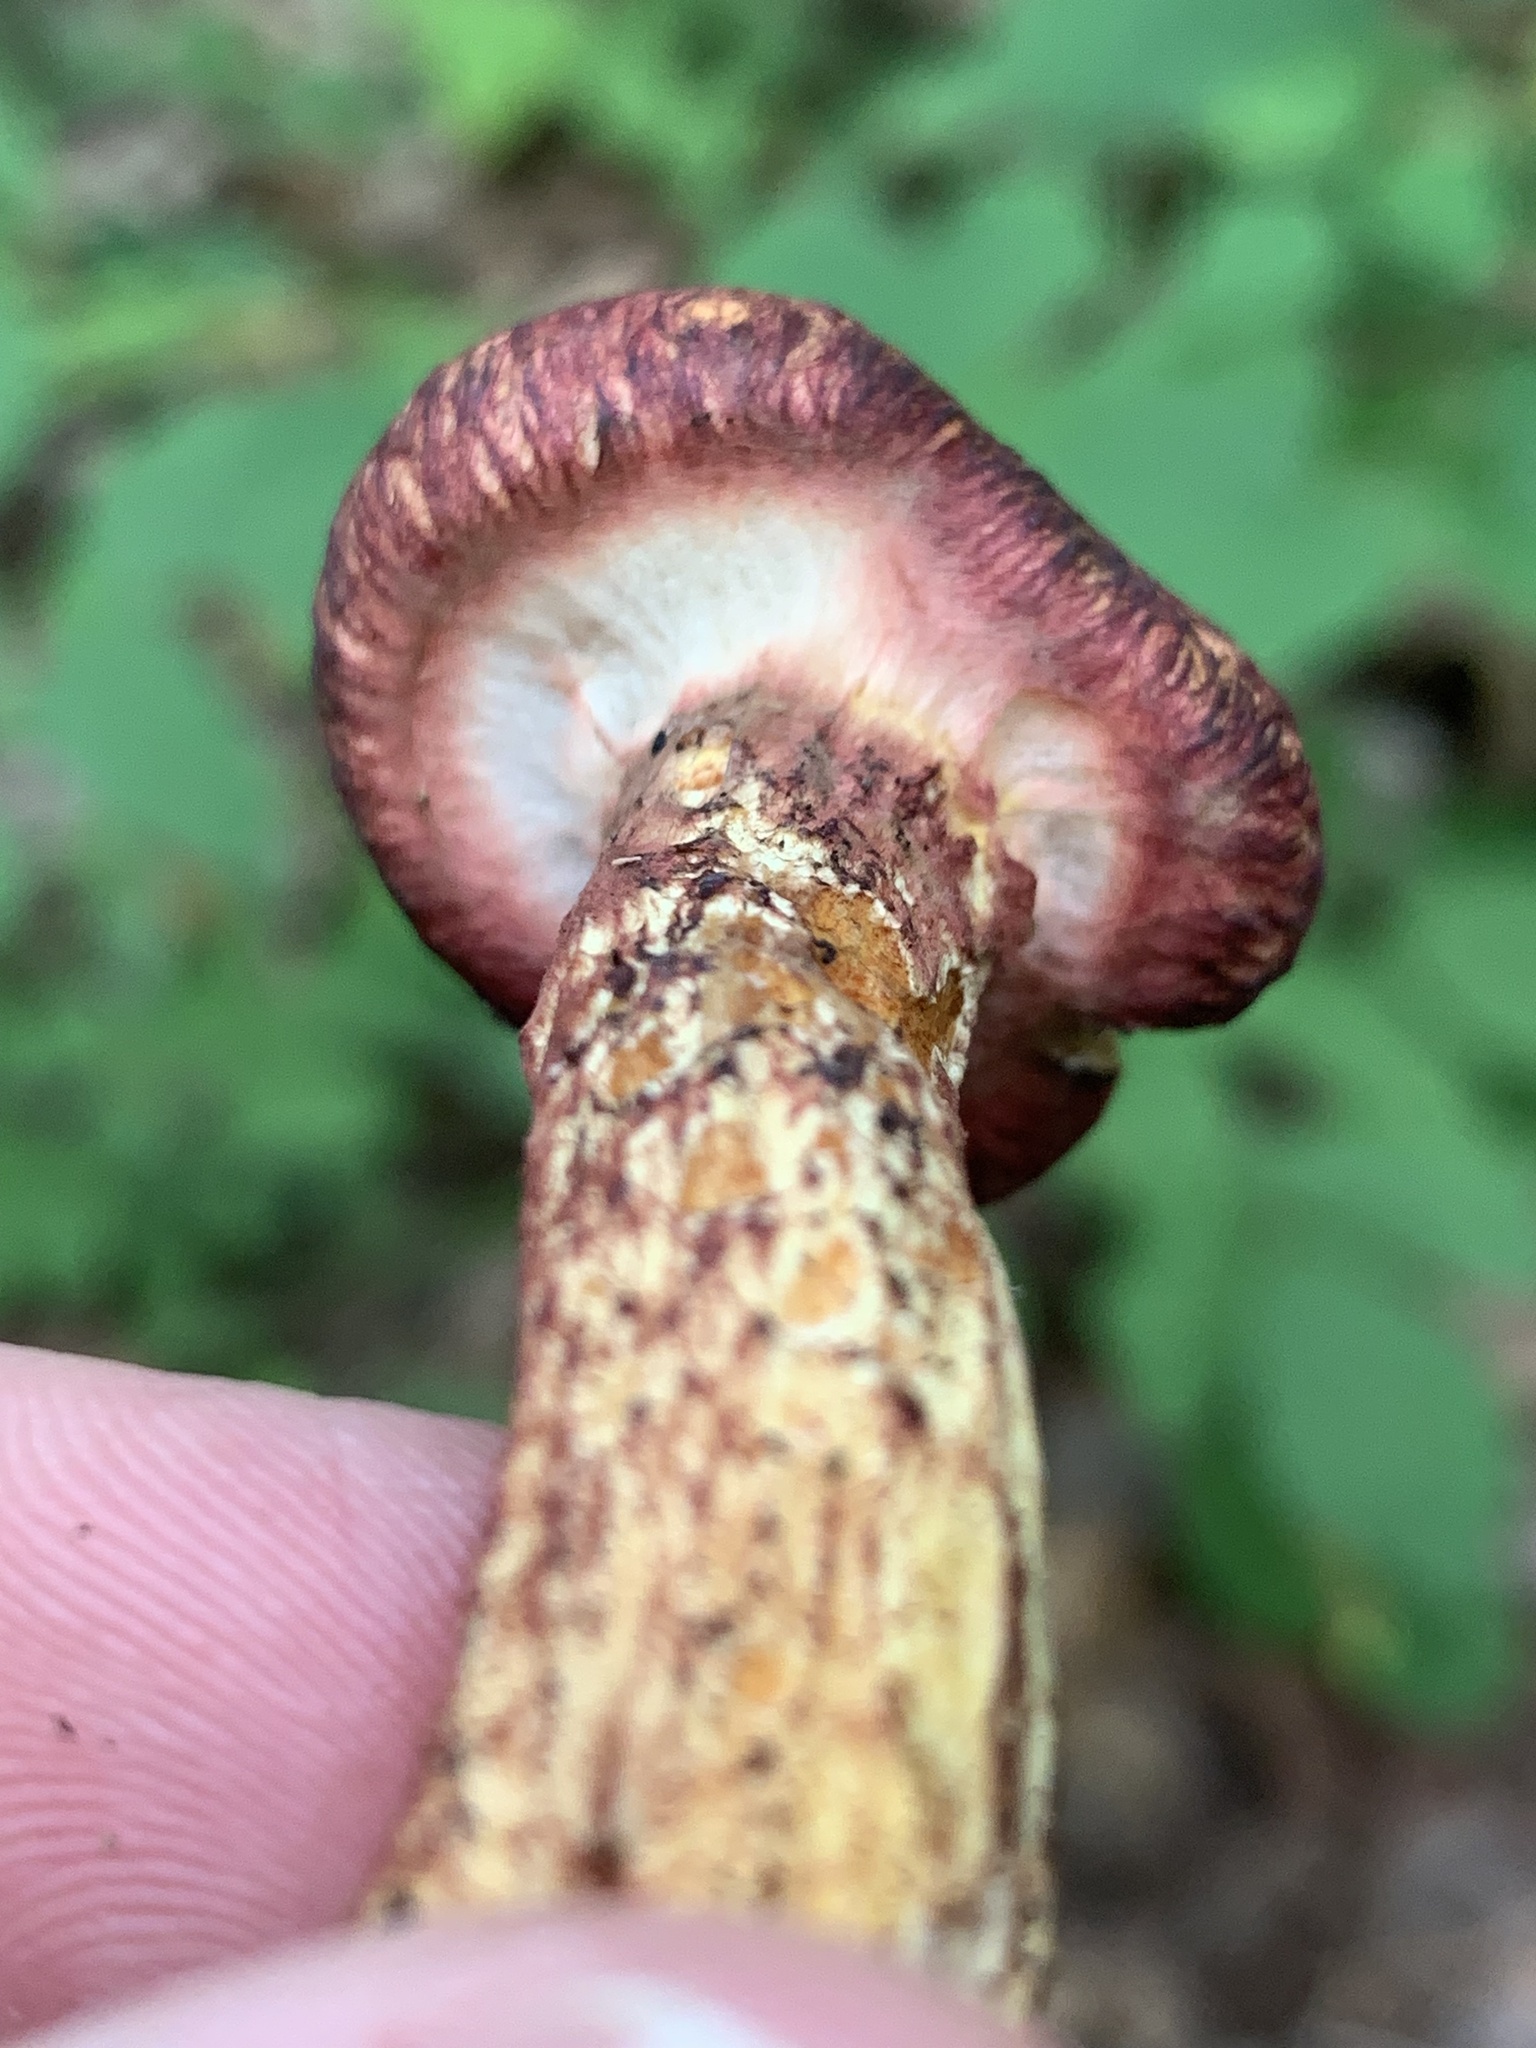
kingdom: Fungi
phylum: Basidiomycota
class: Agaricomycetes
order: Boletales
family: Suillaceae
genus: Suillus
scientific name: Suillus spraguei
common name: Painted suillus
